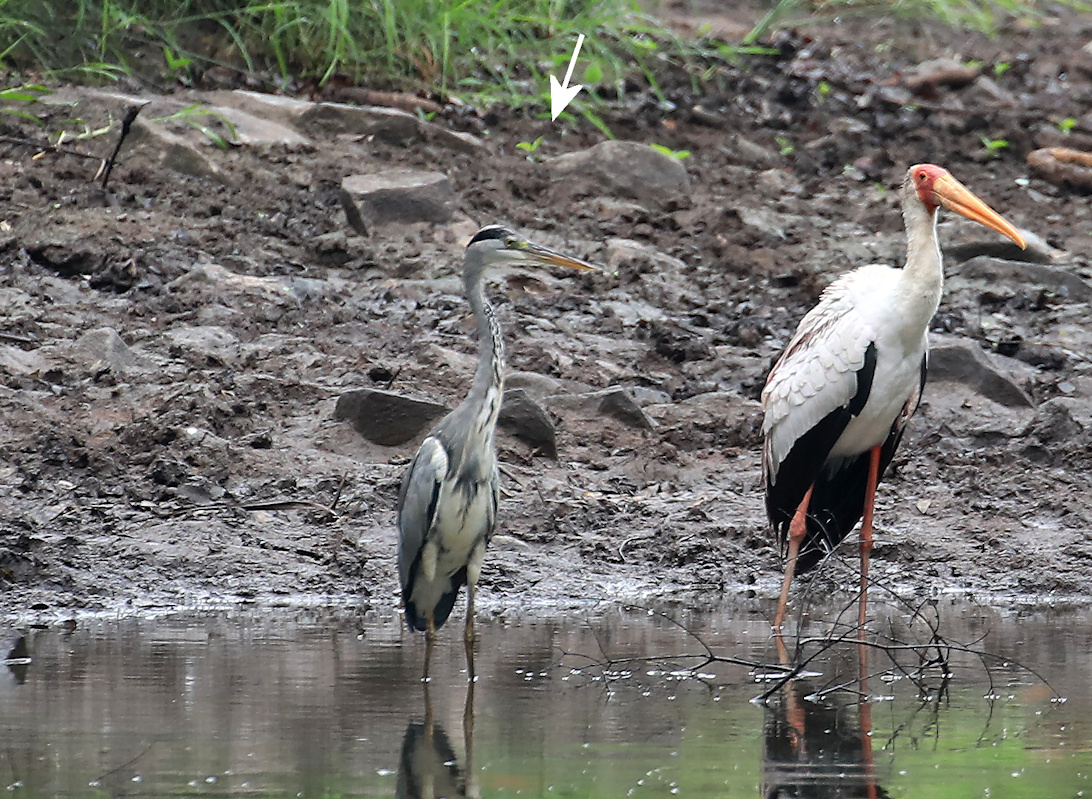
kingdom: Animalia
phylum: Chordata
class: Aves
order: Pelecaniformes
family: Ardeidae
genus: Ardea
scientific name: Ardea cinerea
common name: Grey heron
